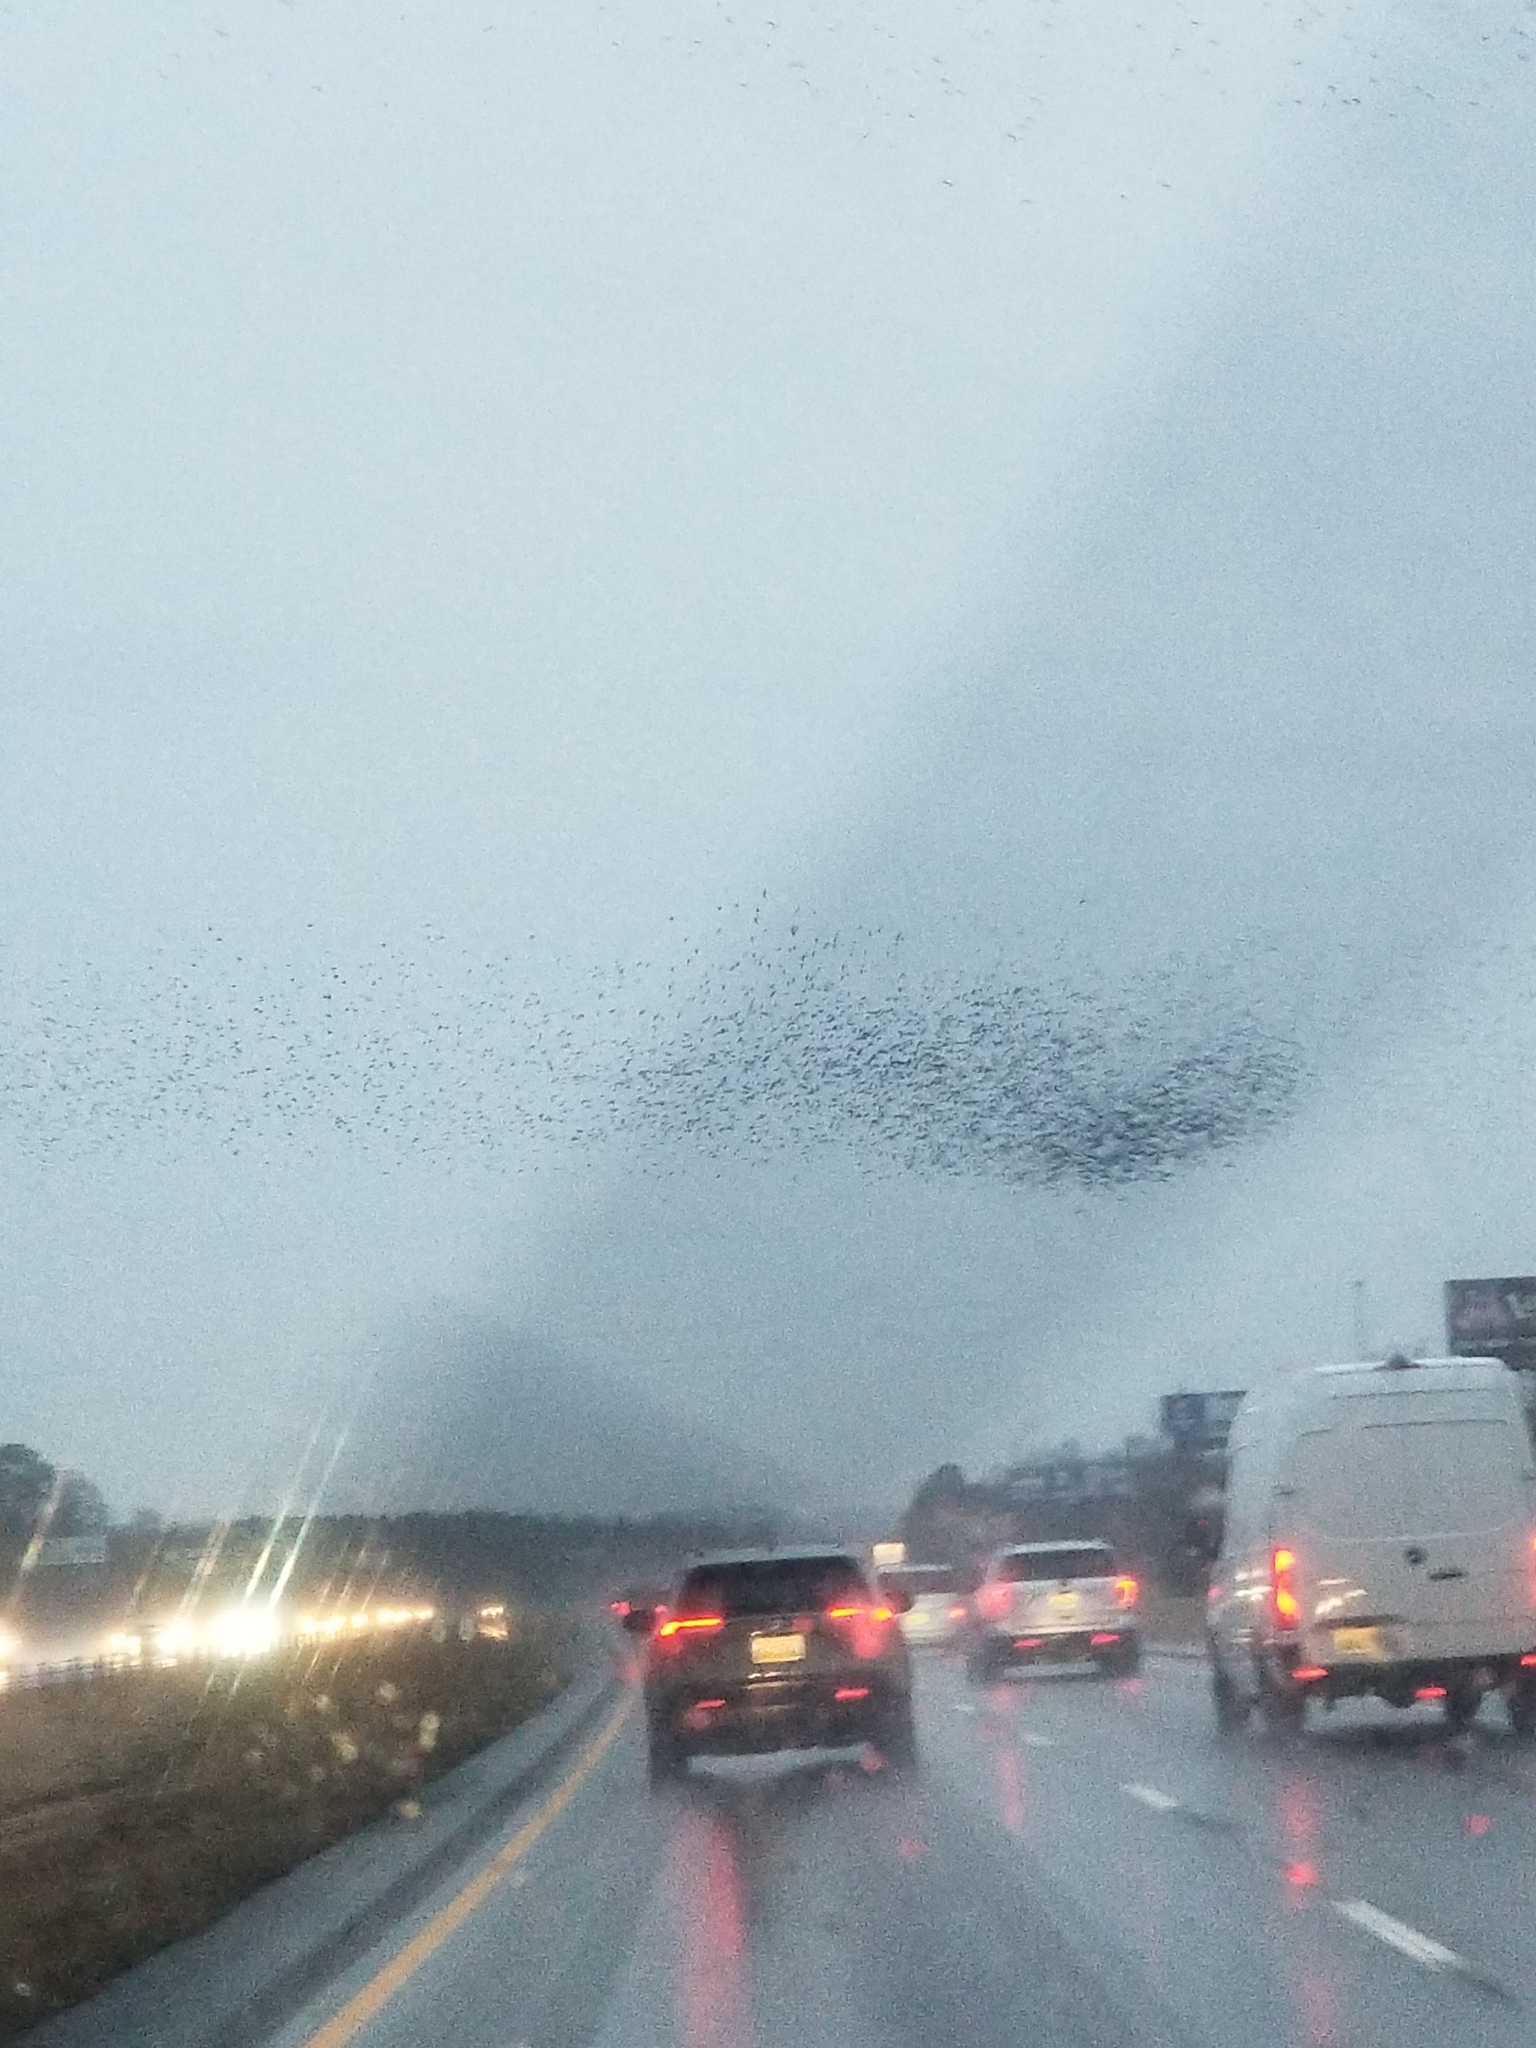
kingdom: Animalia
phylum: Chordata
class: Aves
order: Passeriformes
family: Sturnidae
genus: Sturnus
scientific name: Sturnus vulgaris
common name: Common starling
